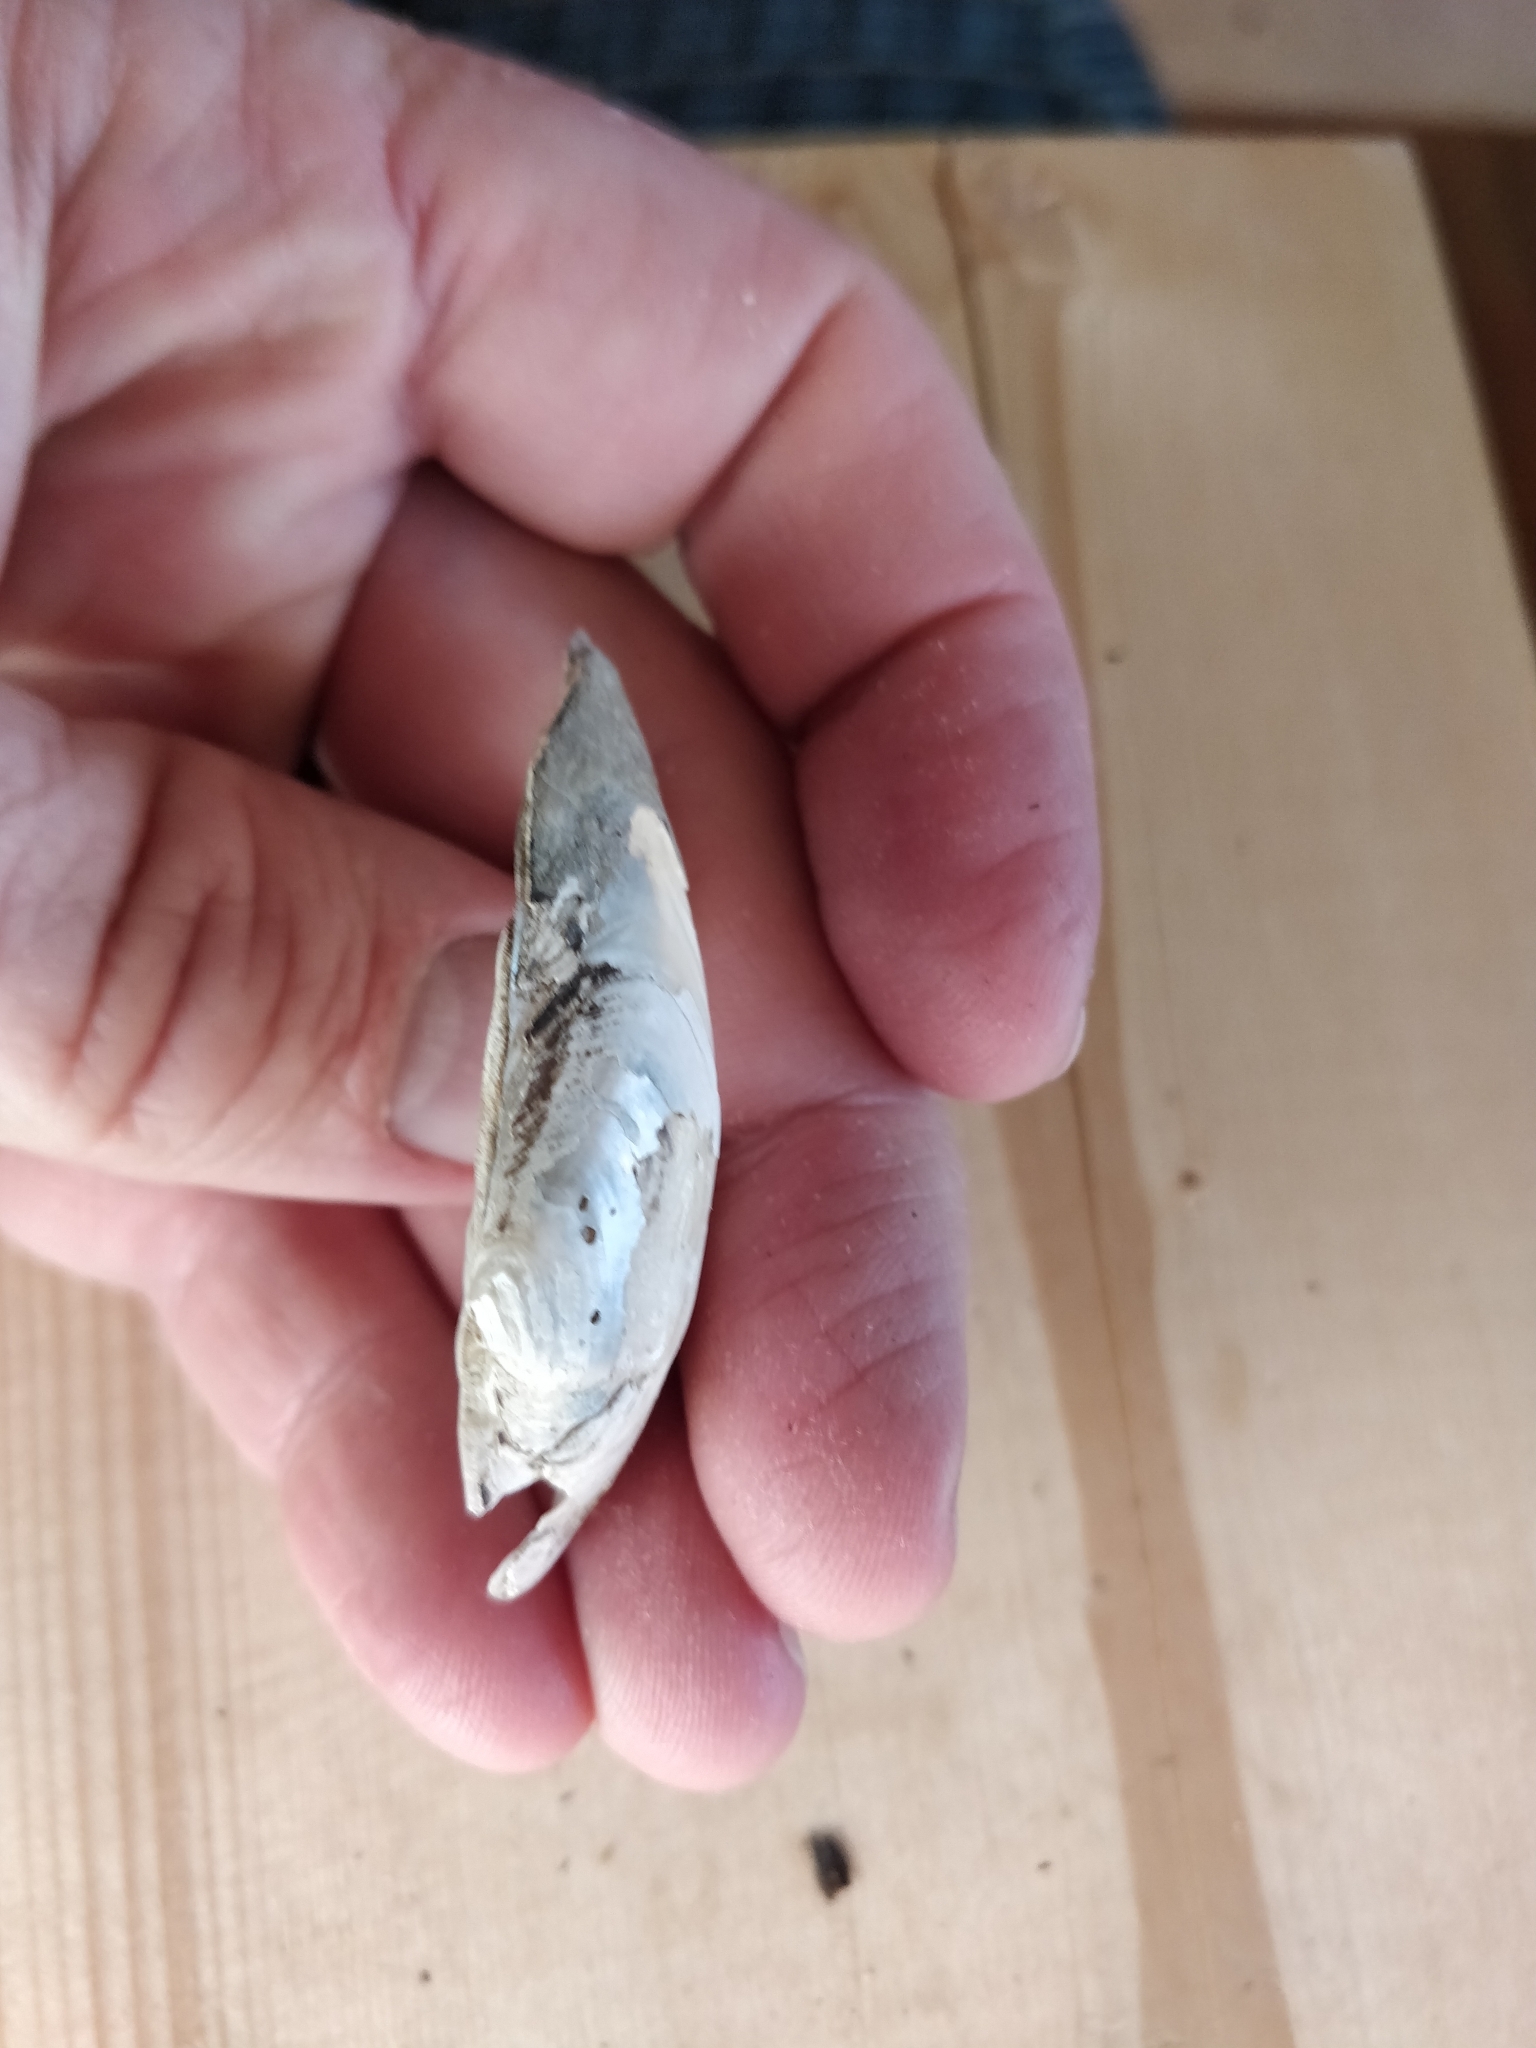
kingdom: Animalia
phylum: Mollusca
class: Bivalvia
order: Unionida
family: Unionidae
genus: Strophitus
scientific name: Strophitus undulatus
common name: Creeper
